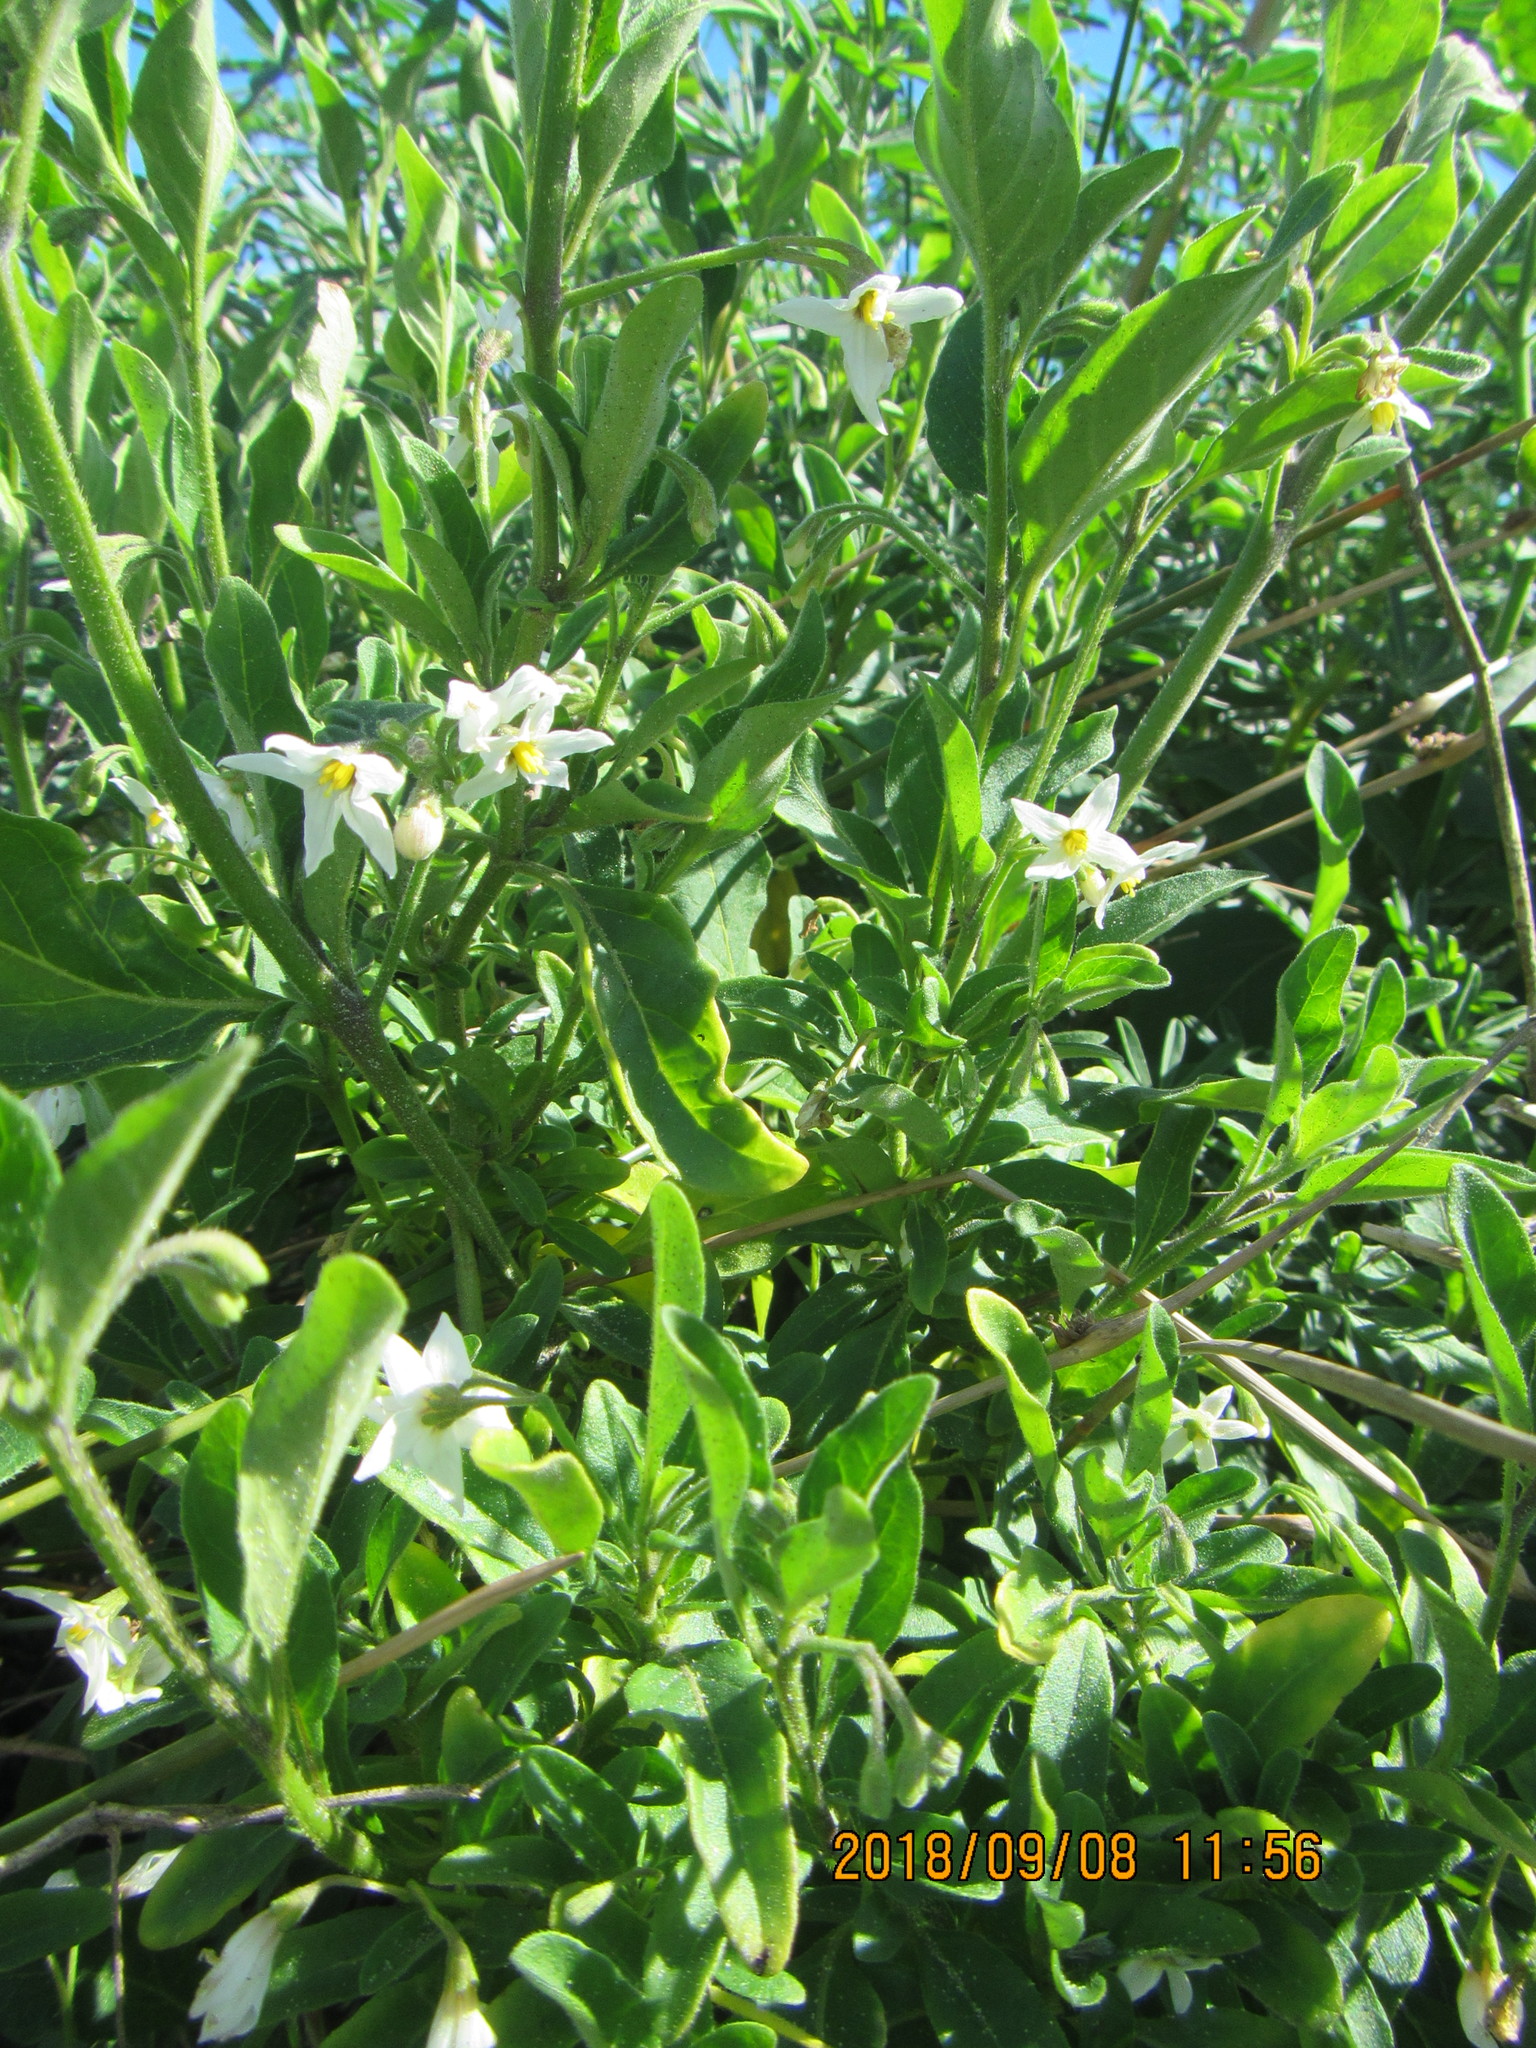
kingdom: Plantae
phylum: Tracheophyta
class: Magnoliopsida
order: Solanales
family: Solanaceae
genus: Solanum
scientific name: Solanum chenopodioides
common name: Tall nightshade
